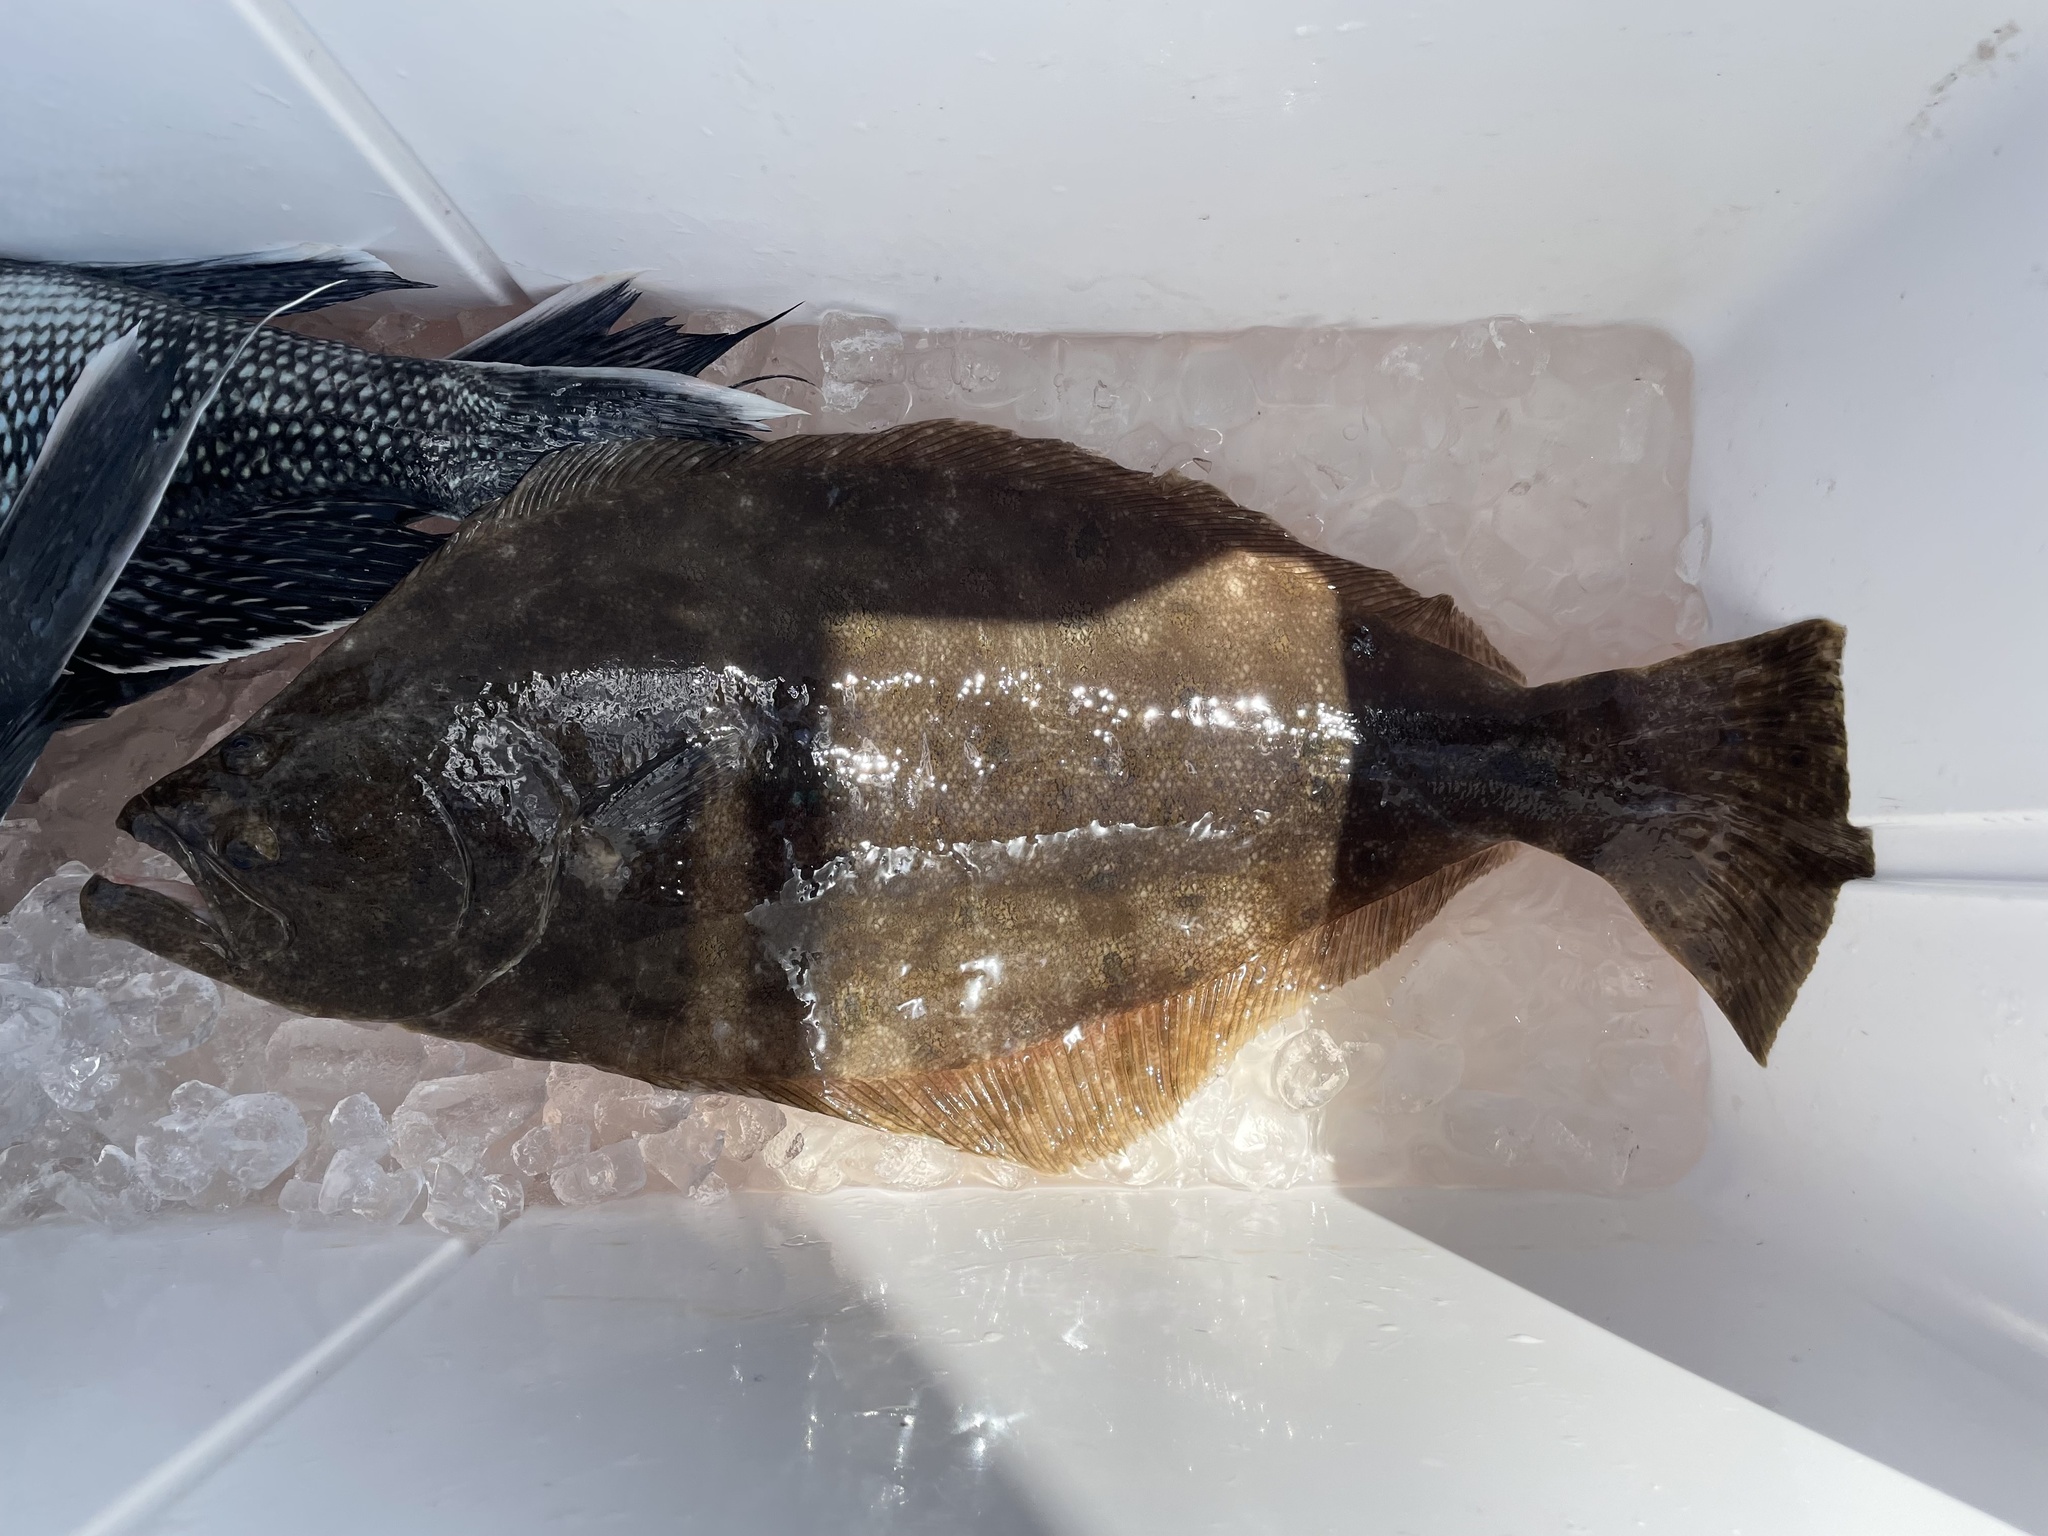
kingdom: Animalia
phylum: Chordata
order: Pleuronectiformes
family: Paralichthyidae
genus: Paralichthys
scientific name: Paralichthys dentatus
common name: Summer flounder
